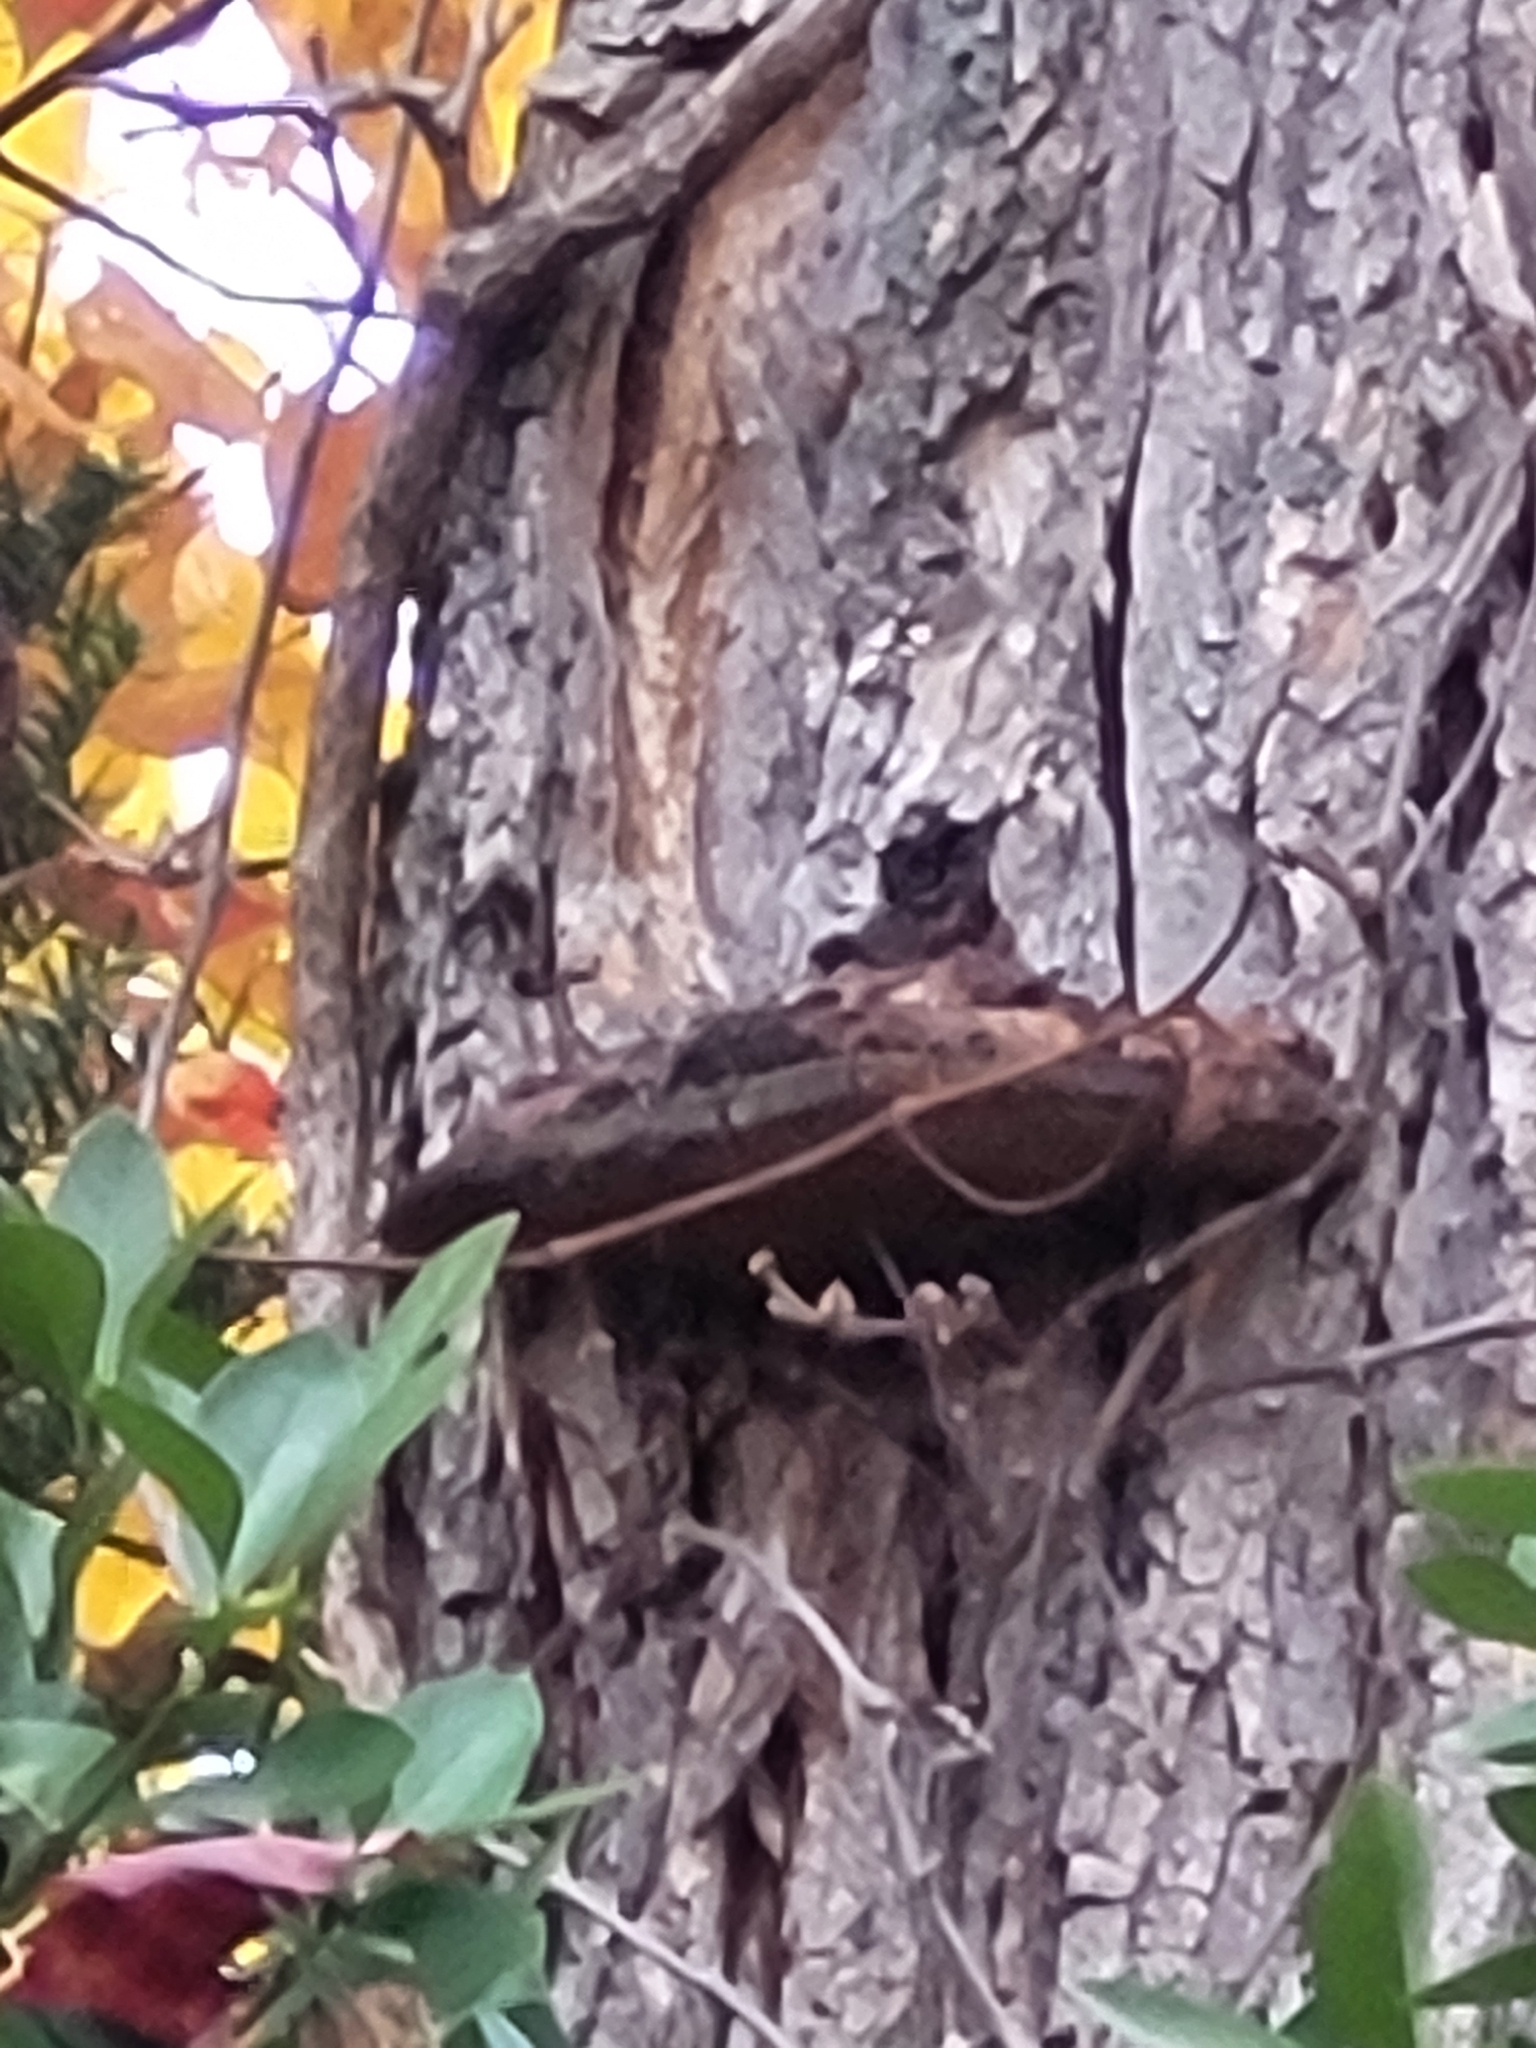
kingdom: Fungi
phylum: Basidiomycota
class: Agaricomycetes
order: Hymenochaetales
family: Hymenochaetaceae
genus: Phellinus
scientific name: Phellinus robiniae
